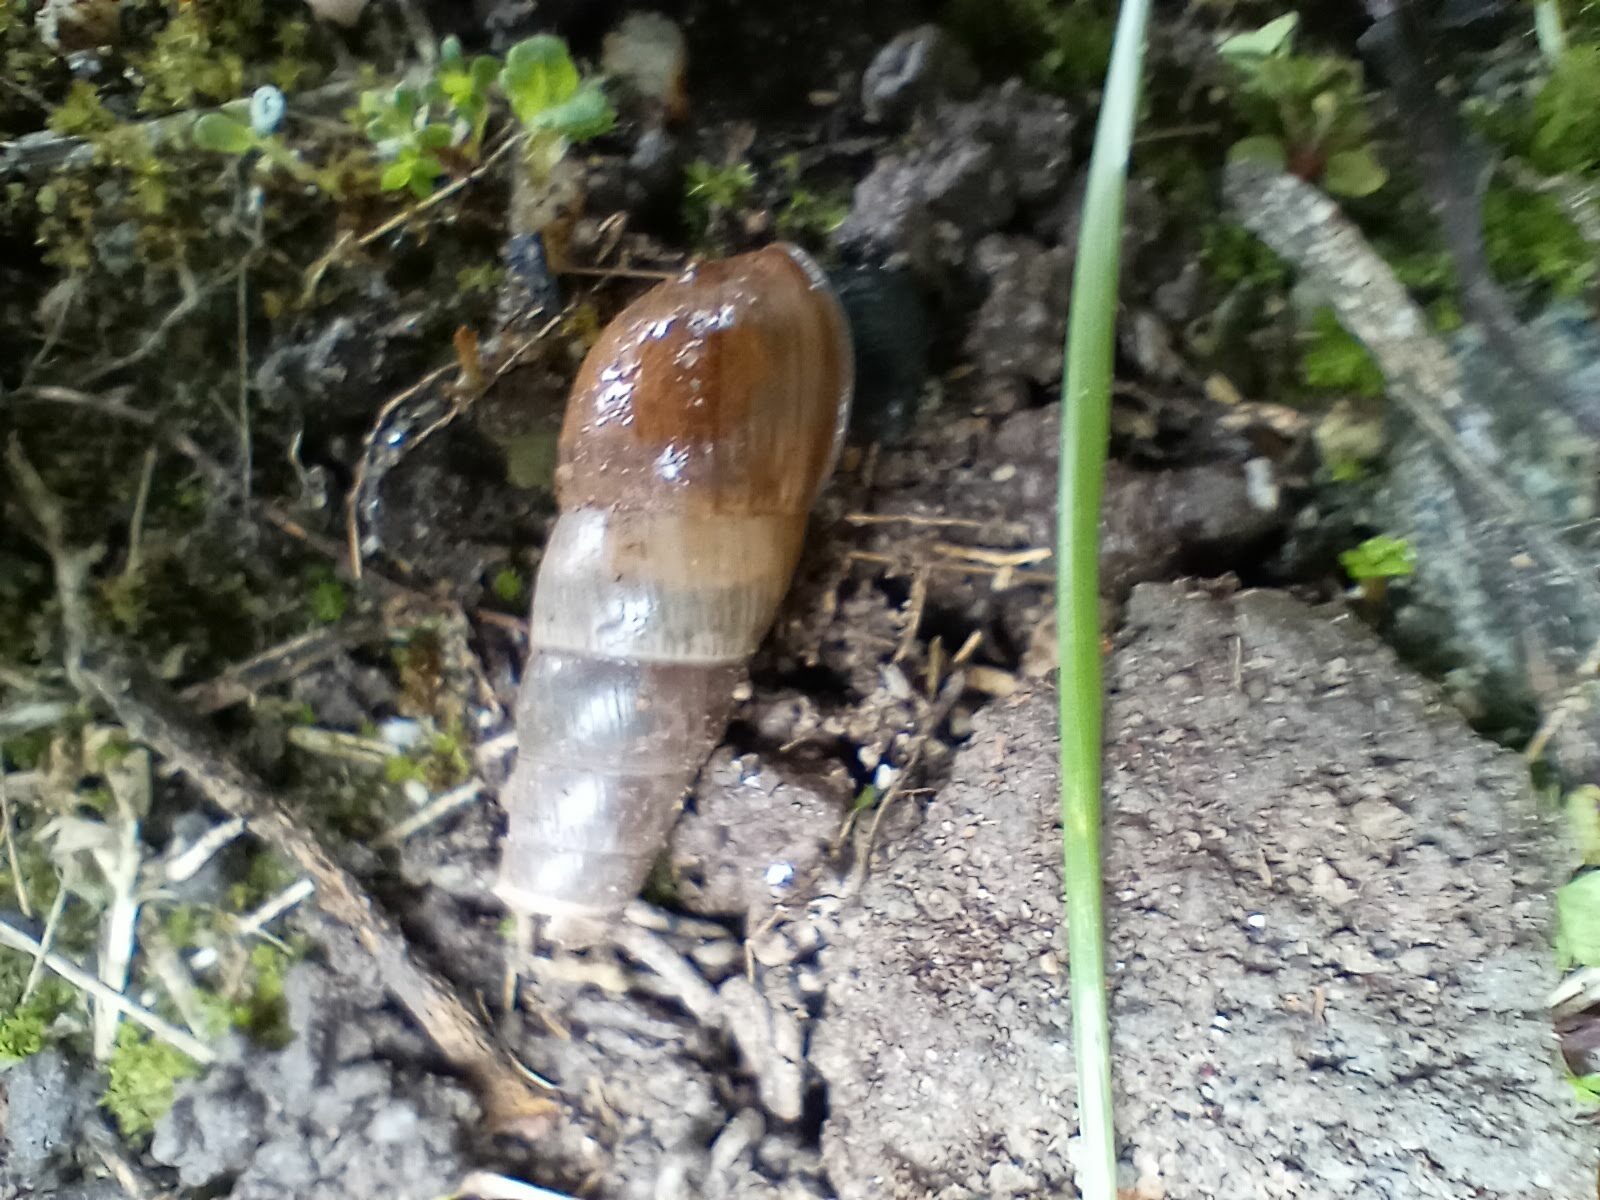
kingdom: Animalia
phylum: Mollusca
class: Gastropoda
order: Stylommatophora
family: Achatinidae
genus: Rumina
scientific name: Rumina decollata
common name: Decollate snail
